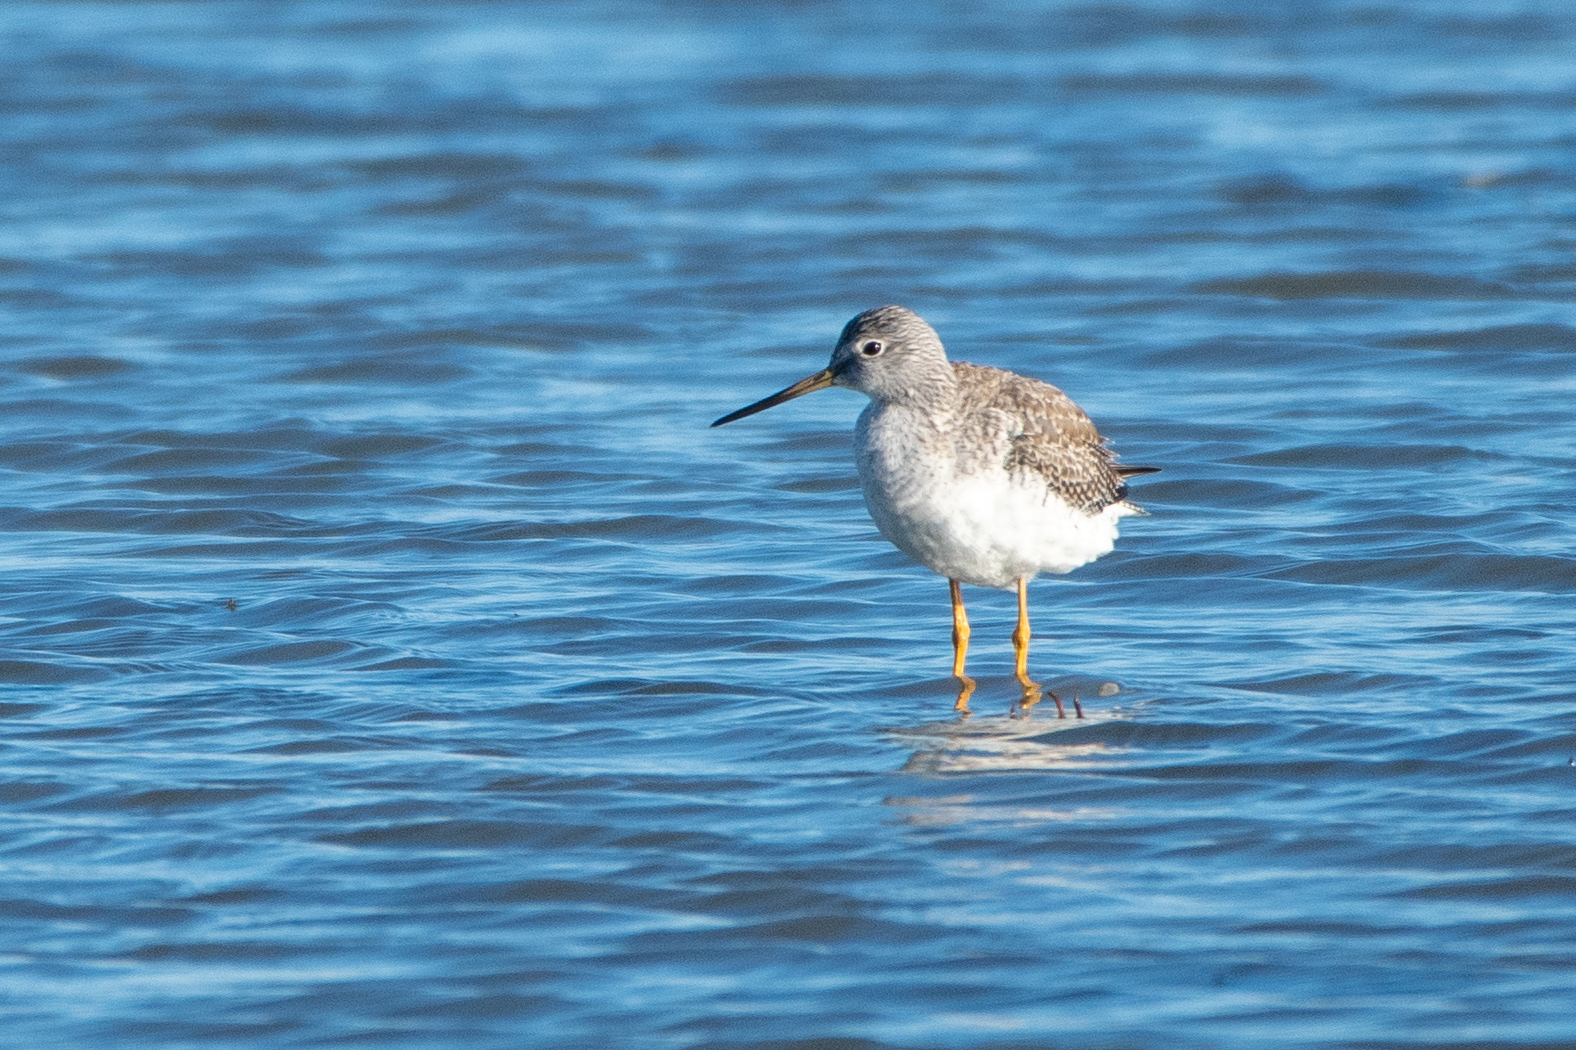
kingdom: Animalia
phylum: Chordata
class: Aves
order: Charadriiformes
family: Scolopacidae
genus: Tringa
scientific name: Tringa melanoleuca
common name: Greater yellowlegs
